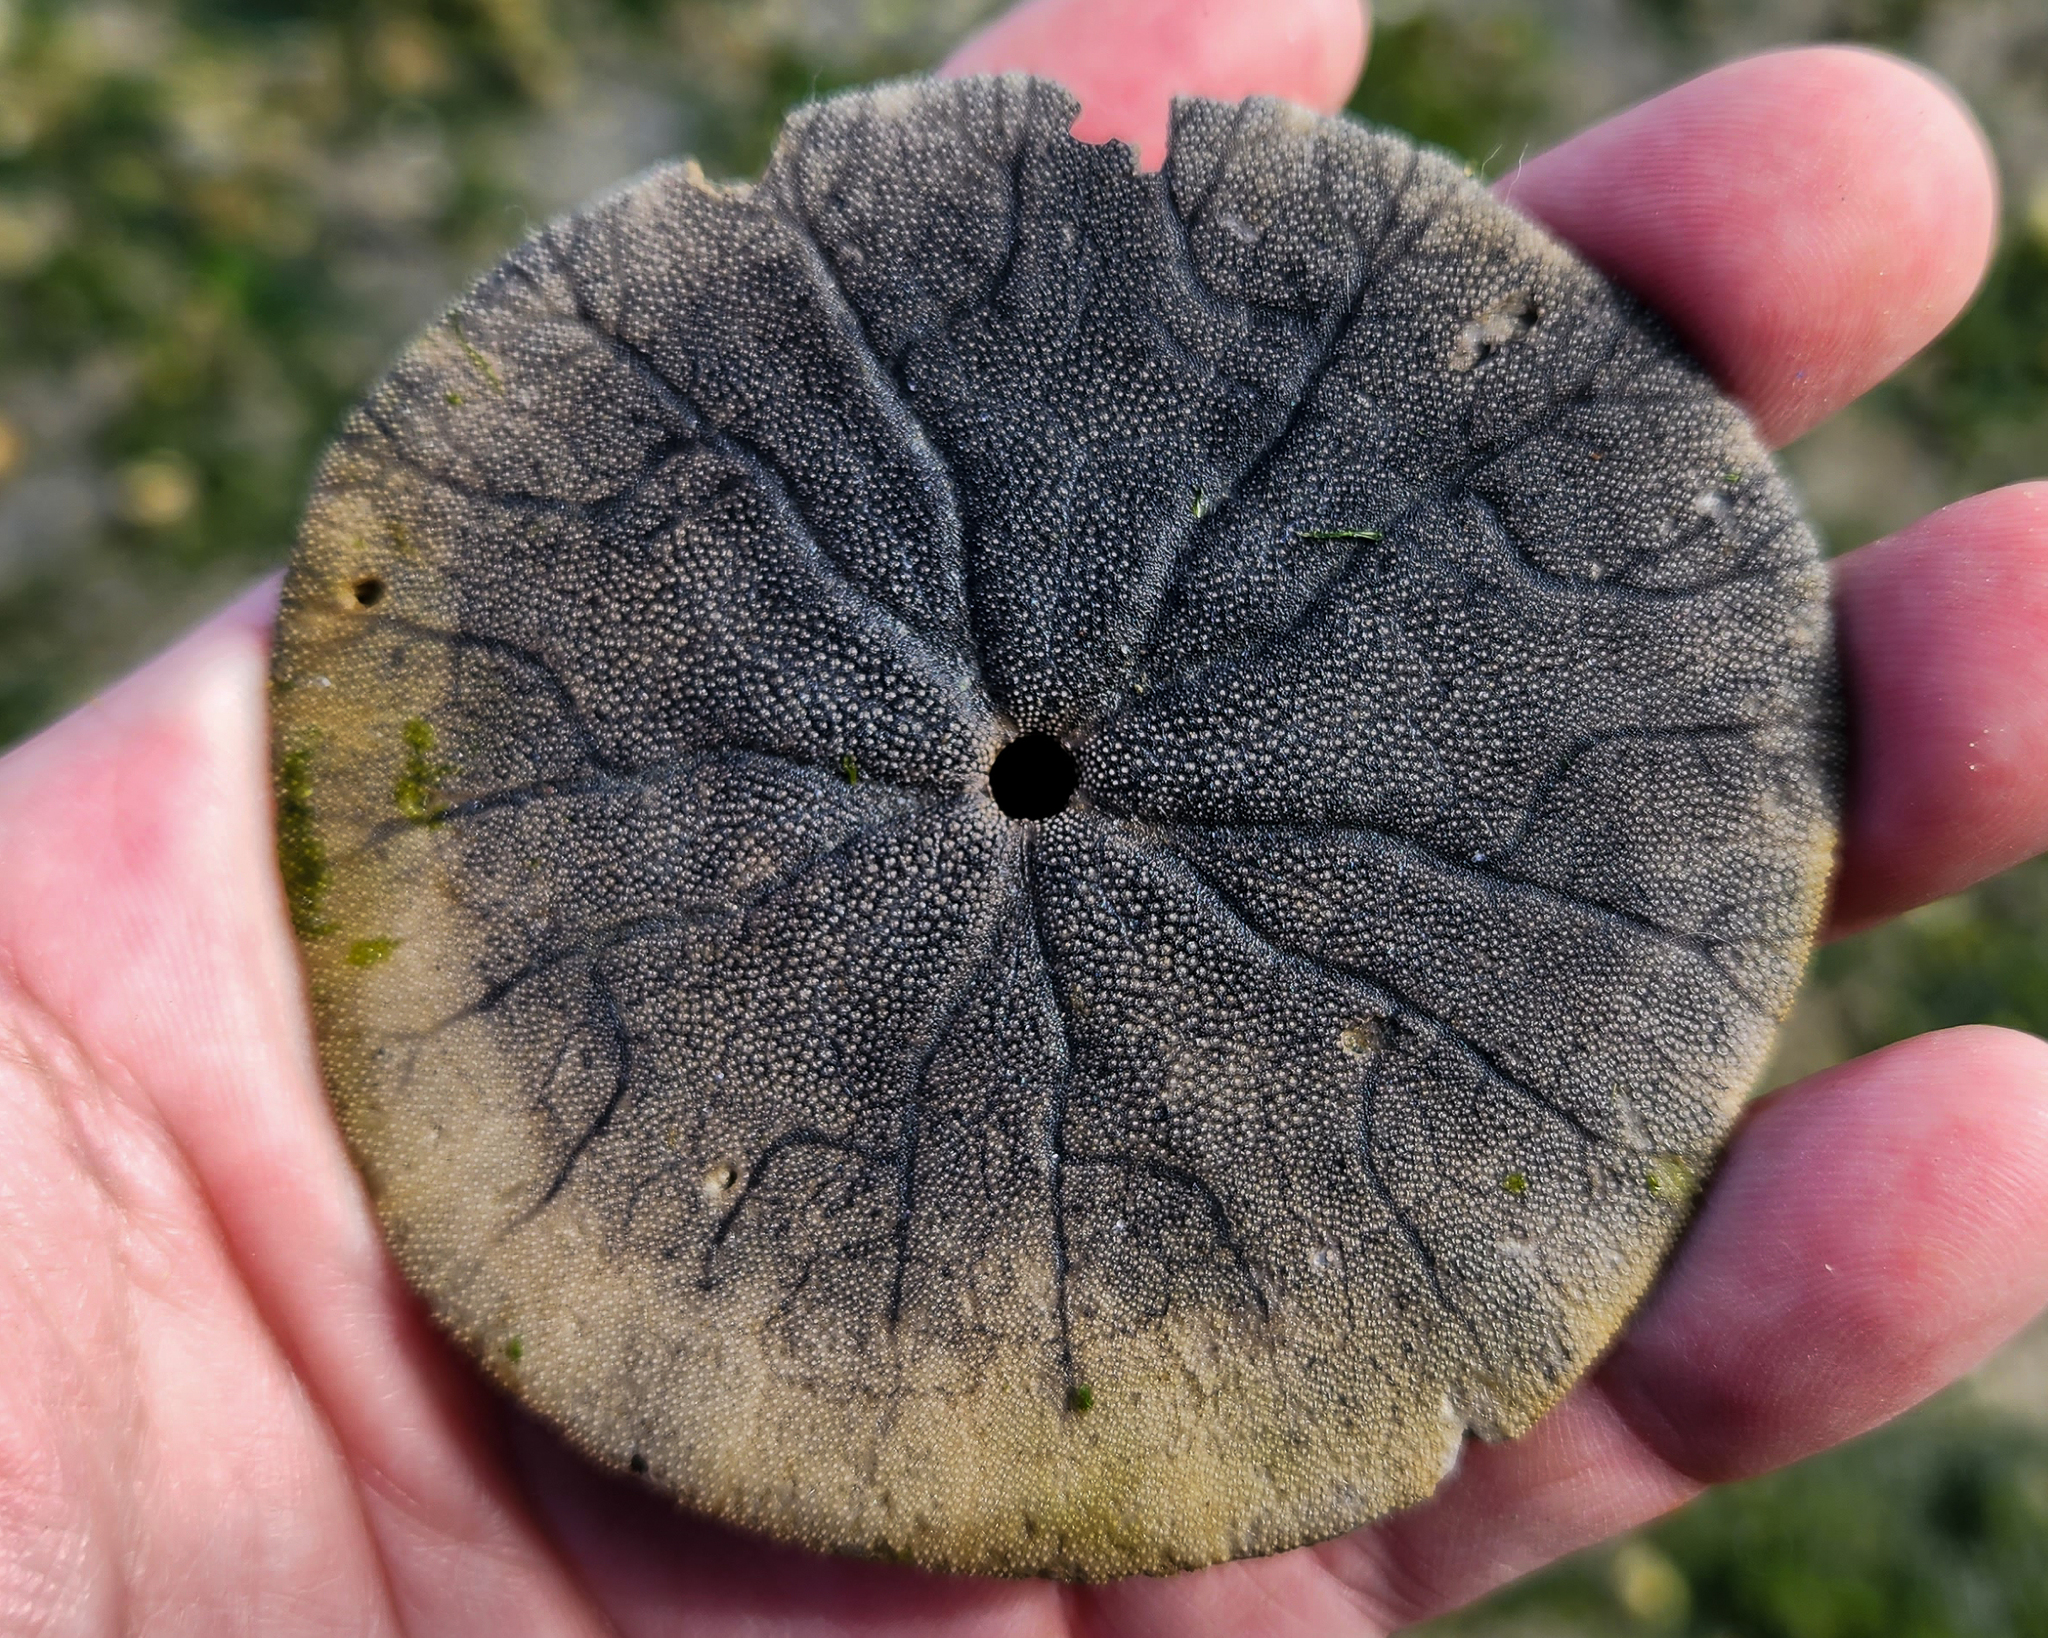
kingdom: Animalia
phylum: Echinodermata
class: Echinoidea
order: Echinolampadacea
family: Dendrasteridae
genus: Dendraster
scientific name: Dendraster excentricus
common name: Eccentric sand dollar sea urchin
